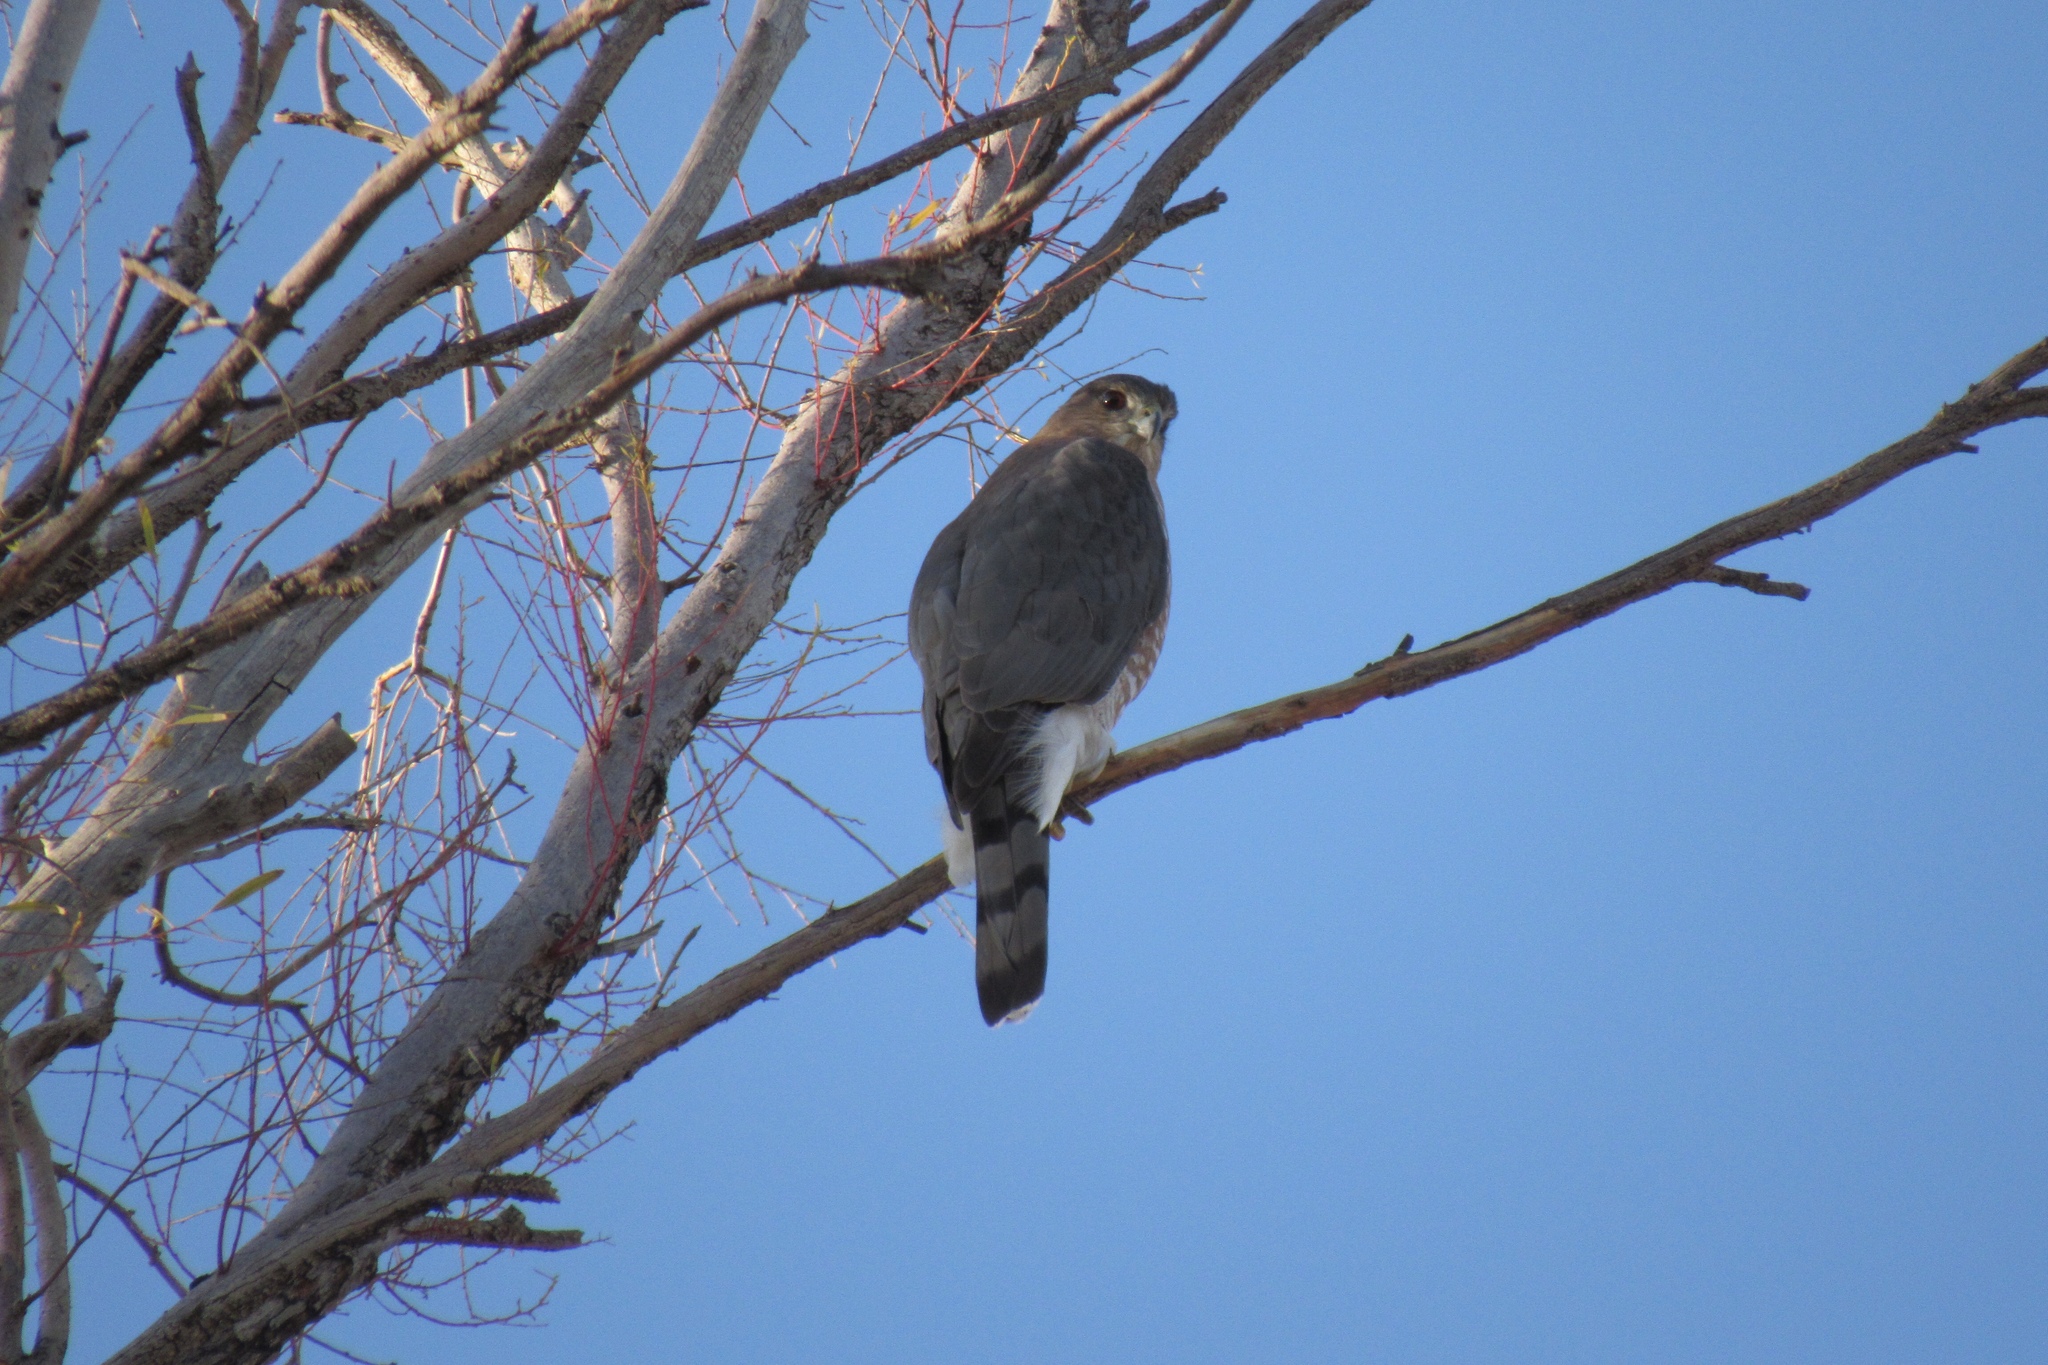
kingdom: Animalia
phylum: Chordata
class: Aves
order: Accipitriformes
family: Accipitridae
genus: Accipiter
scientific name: Accipiter cooperii
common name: Cooper's hawk
